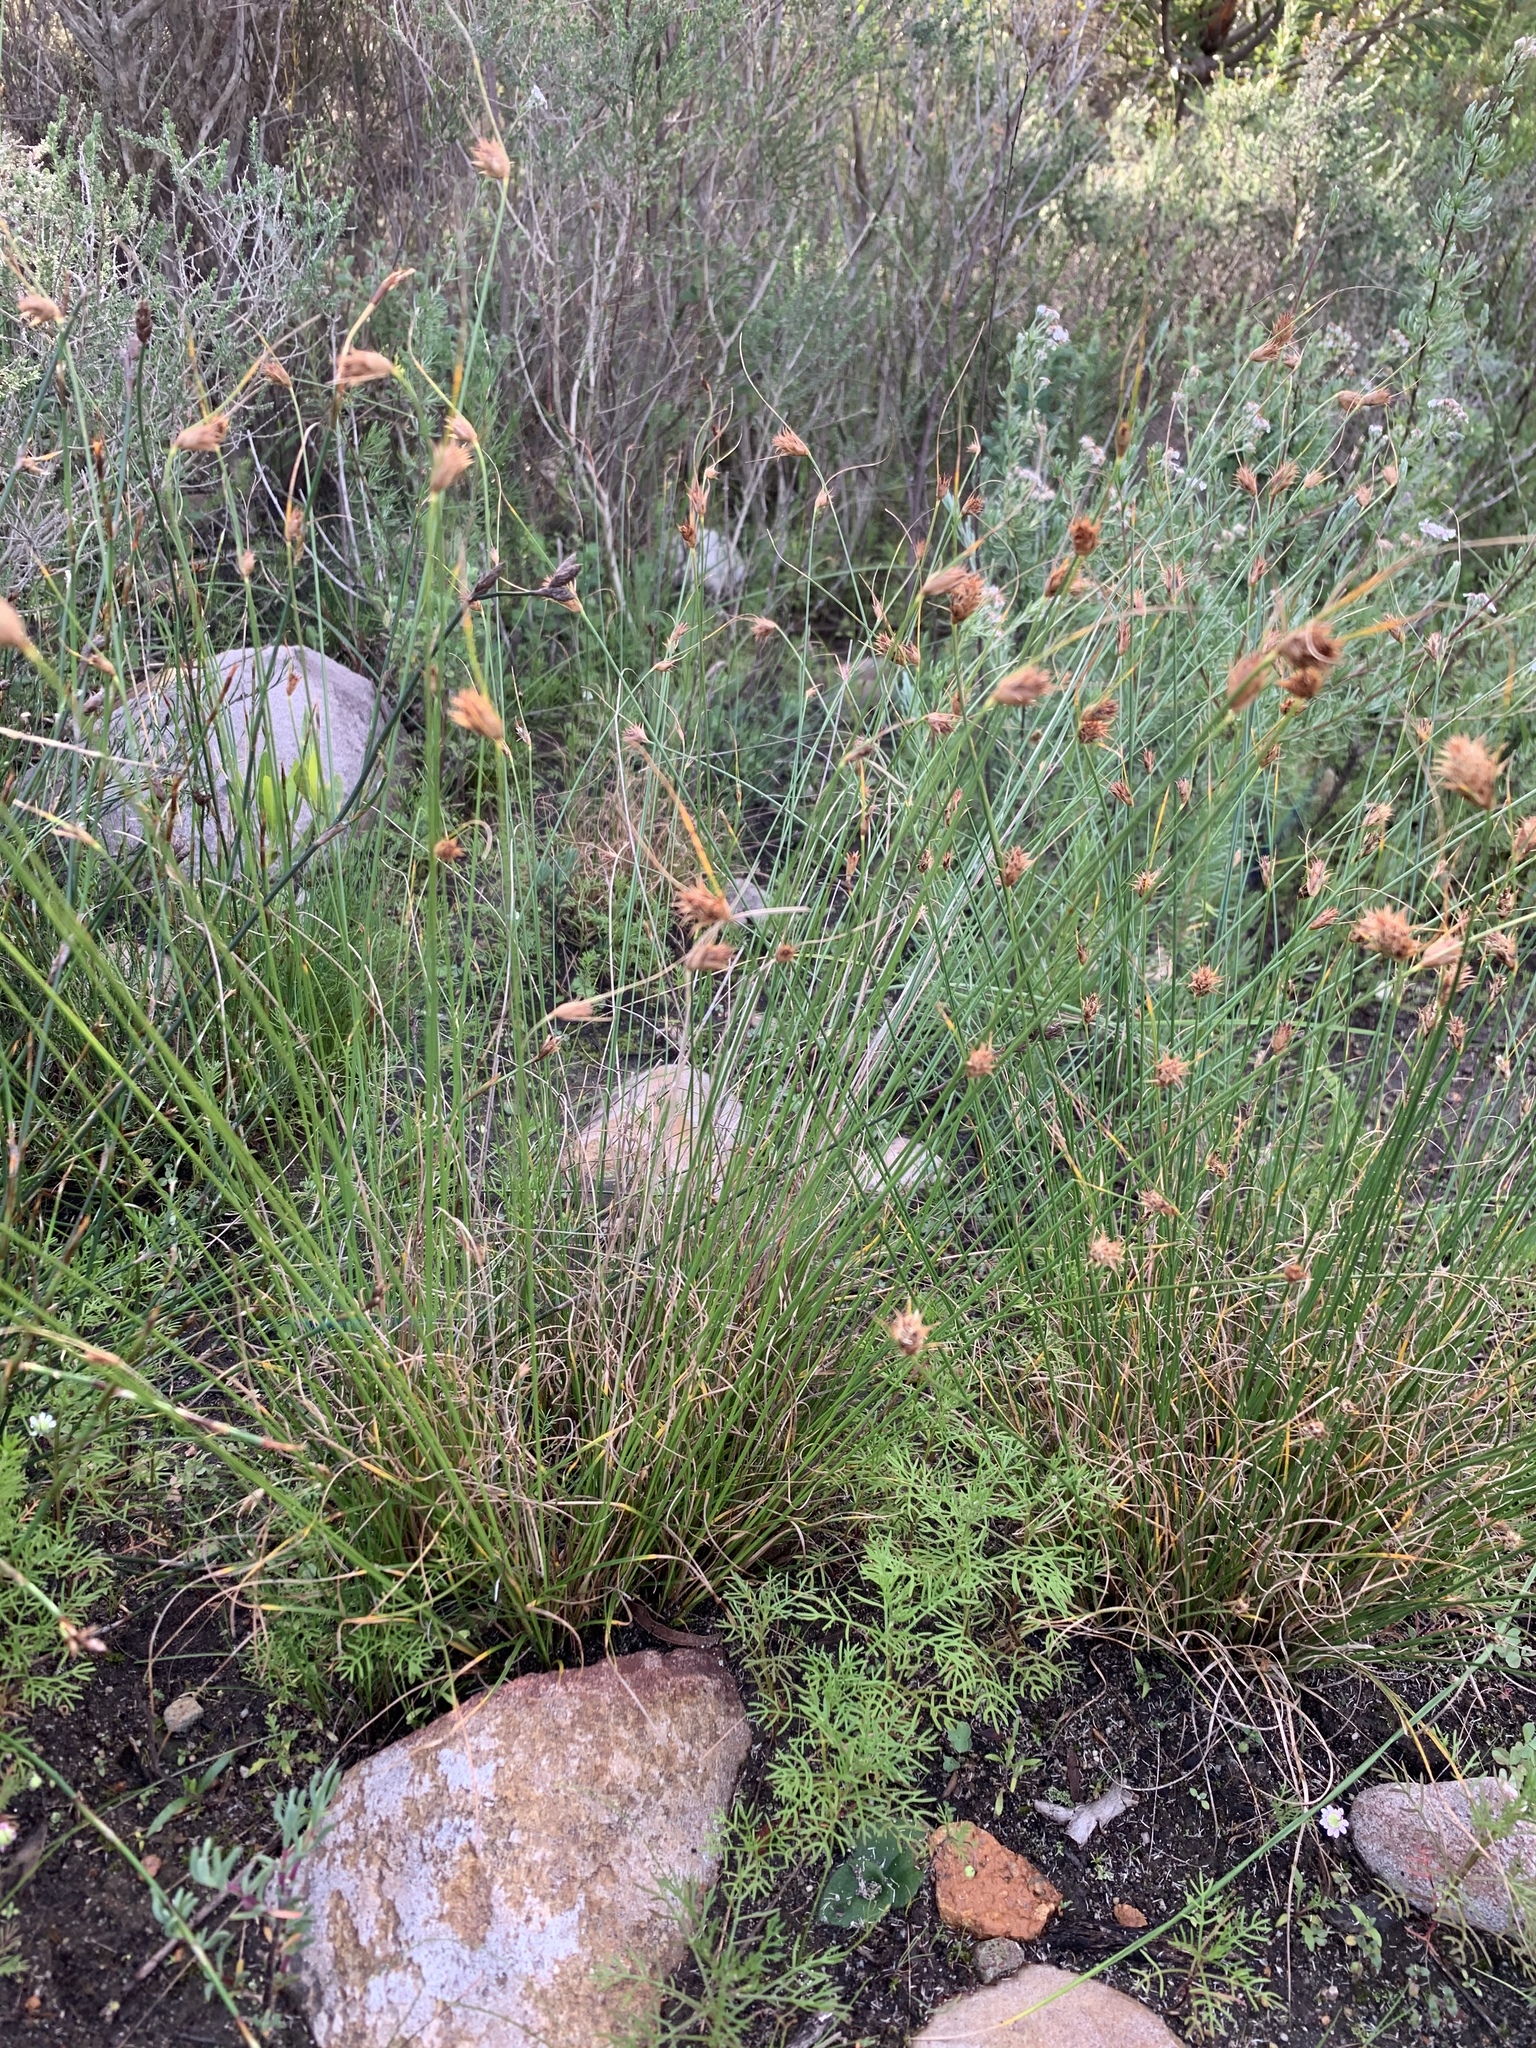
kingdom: Plantae
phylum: Tracheophyta
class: Liliopsida
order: Poales
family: Cyperaceae
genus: Ficinia
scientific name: Ficinia nigrescens
